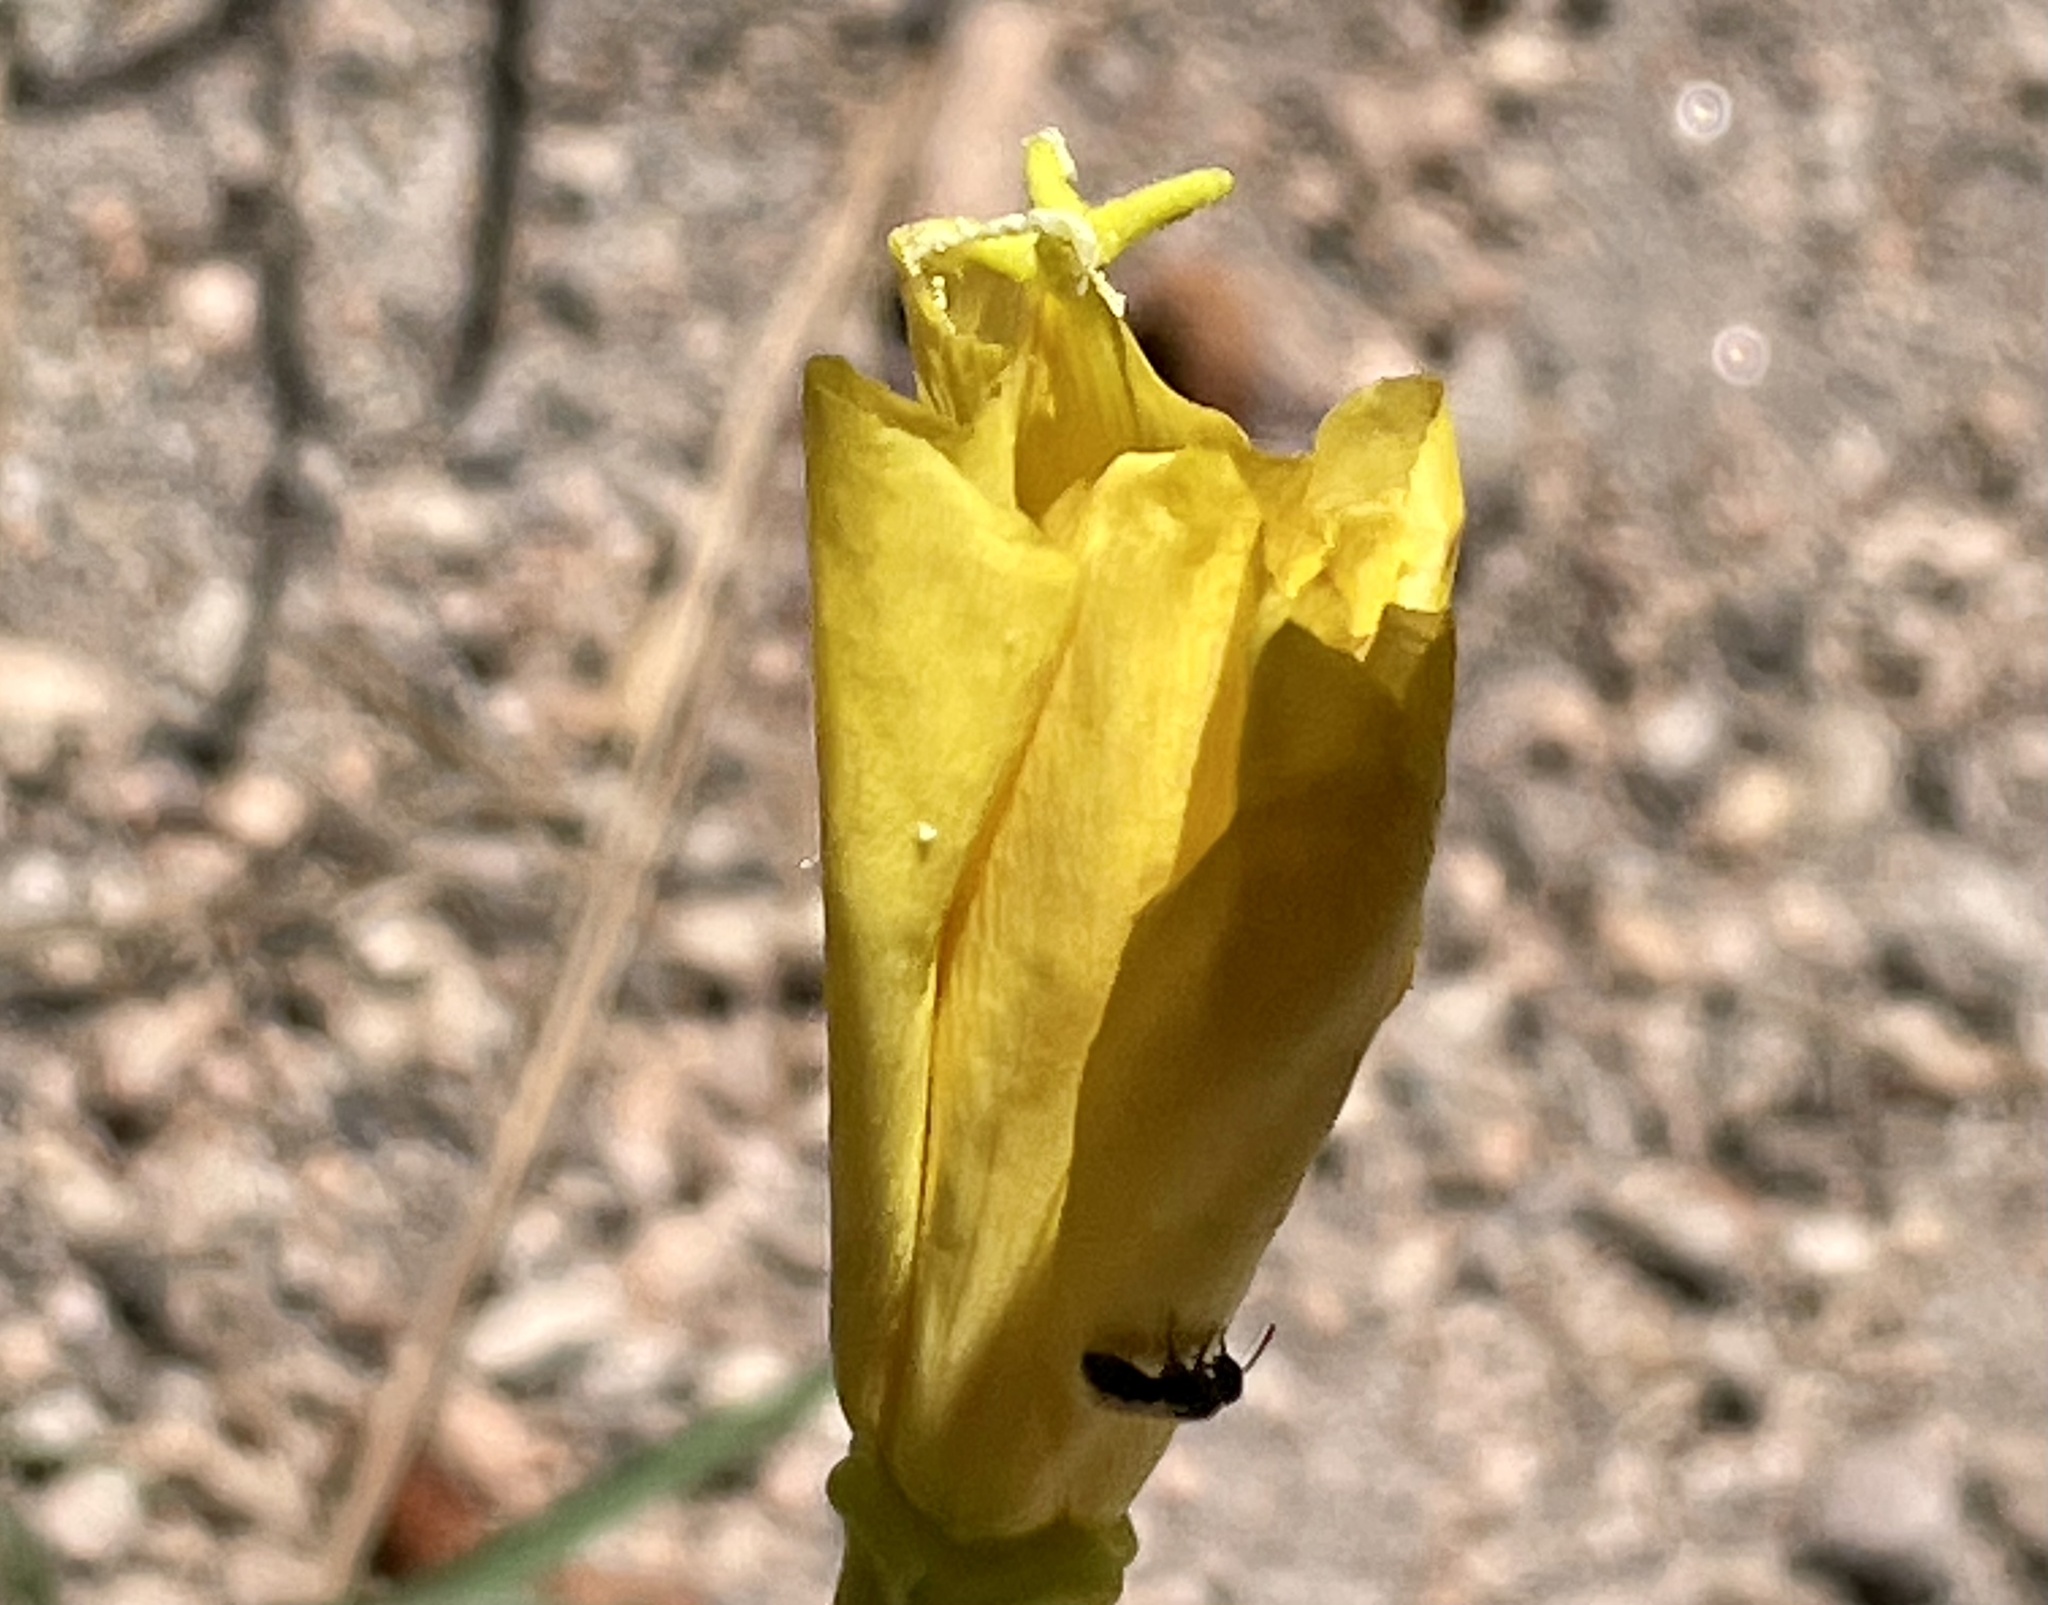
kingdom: Plantae
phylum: Tracheophyta
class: Magnoliopsida
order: Myrtales
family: Onagraceae
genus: Oenothera
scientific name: Oenothera elata
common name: Hooker's evening-primrose
